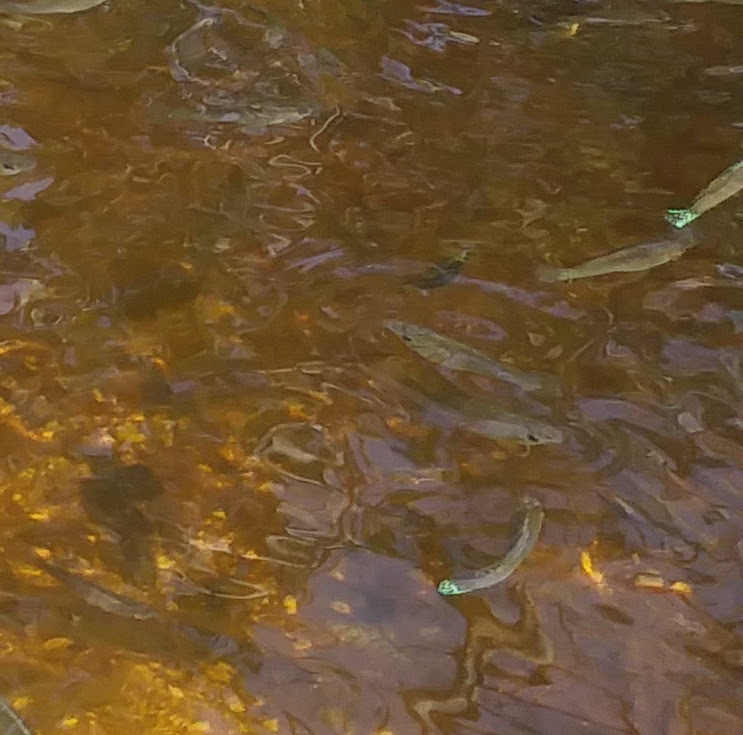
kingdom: Animalia
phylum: Chordata
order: Cyprinodontiformes
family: Poeciliidae
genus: Poecilia
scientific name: Poecilia latipinna
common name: Sailfin molly
